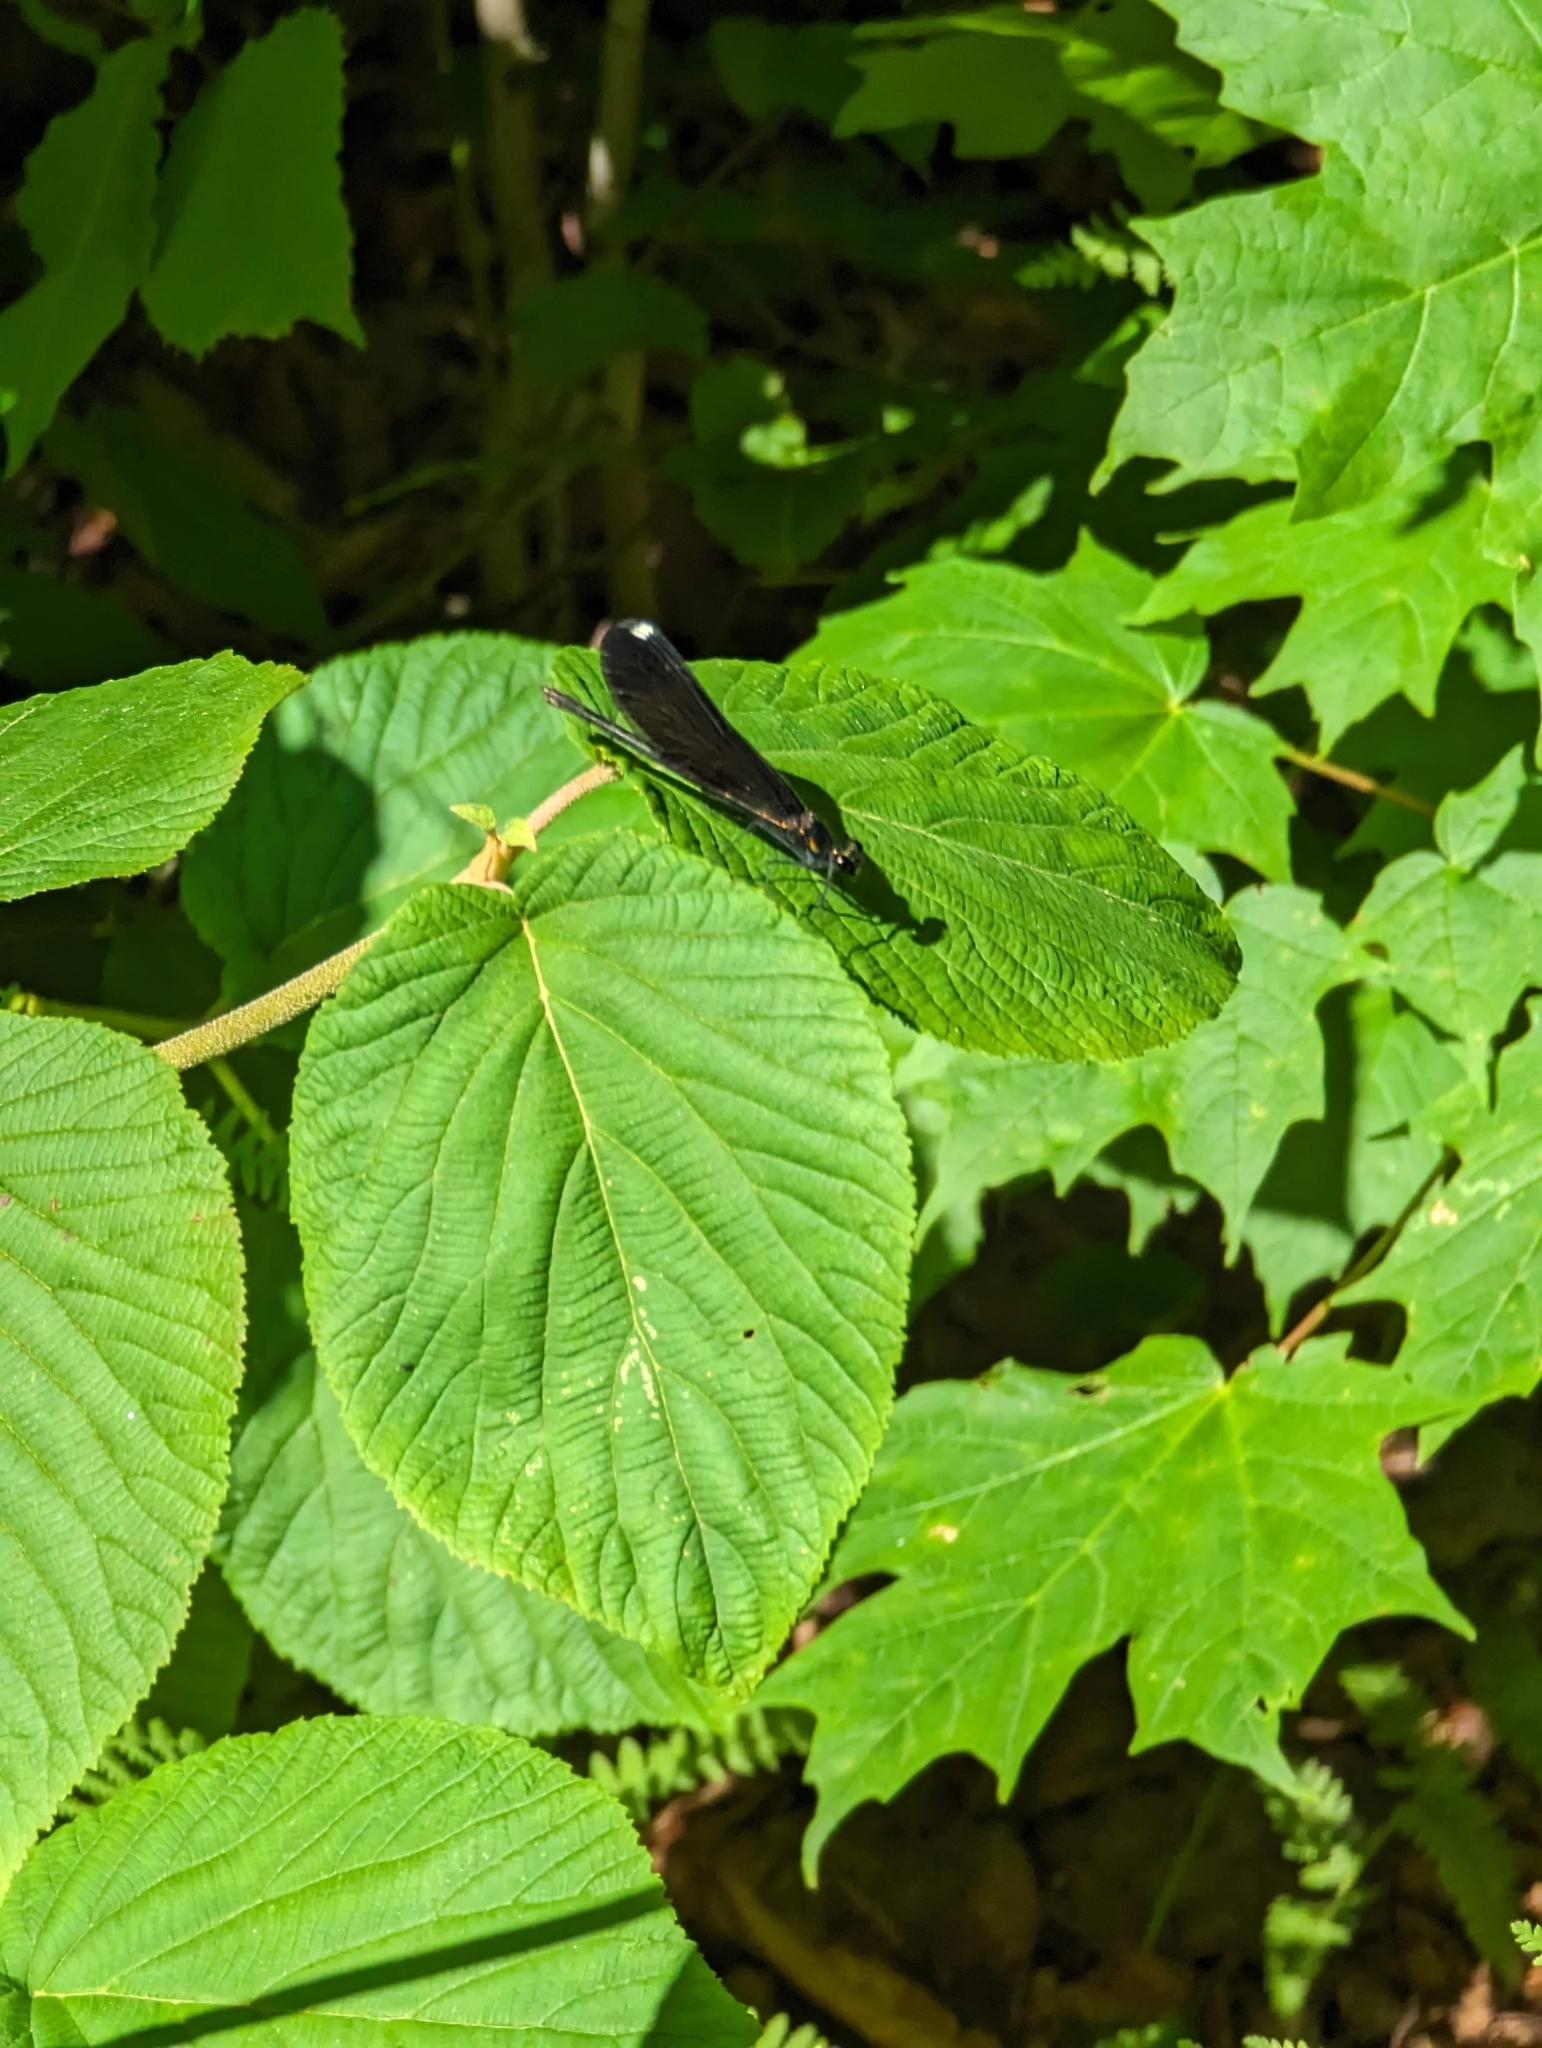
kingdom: Plantae
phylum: Tracheophyta
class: Magnoliopsida
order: Dipsacales
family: Viburnaceae
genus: Viburnum
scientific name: Viburnum lantanoides
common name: Hobblebush
